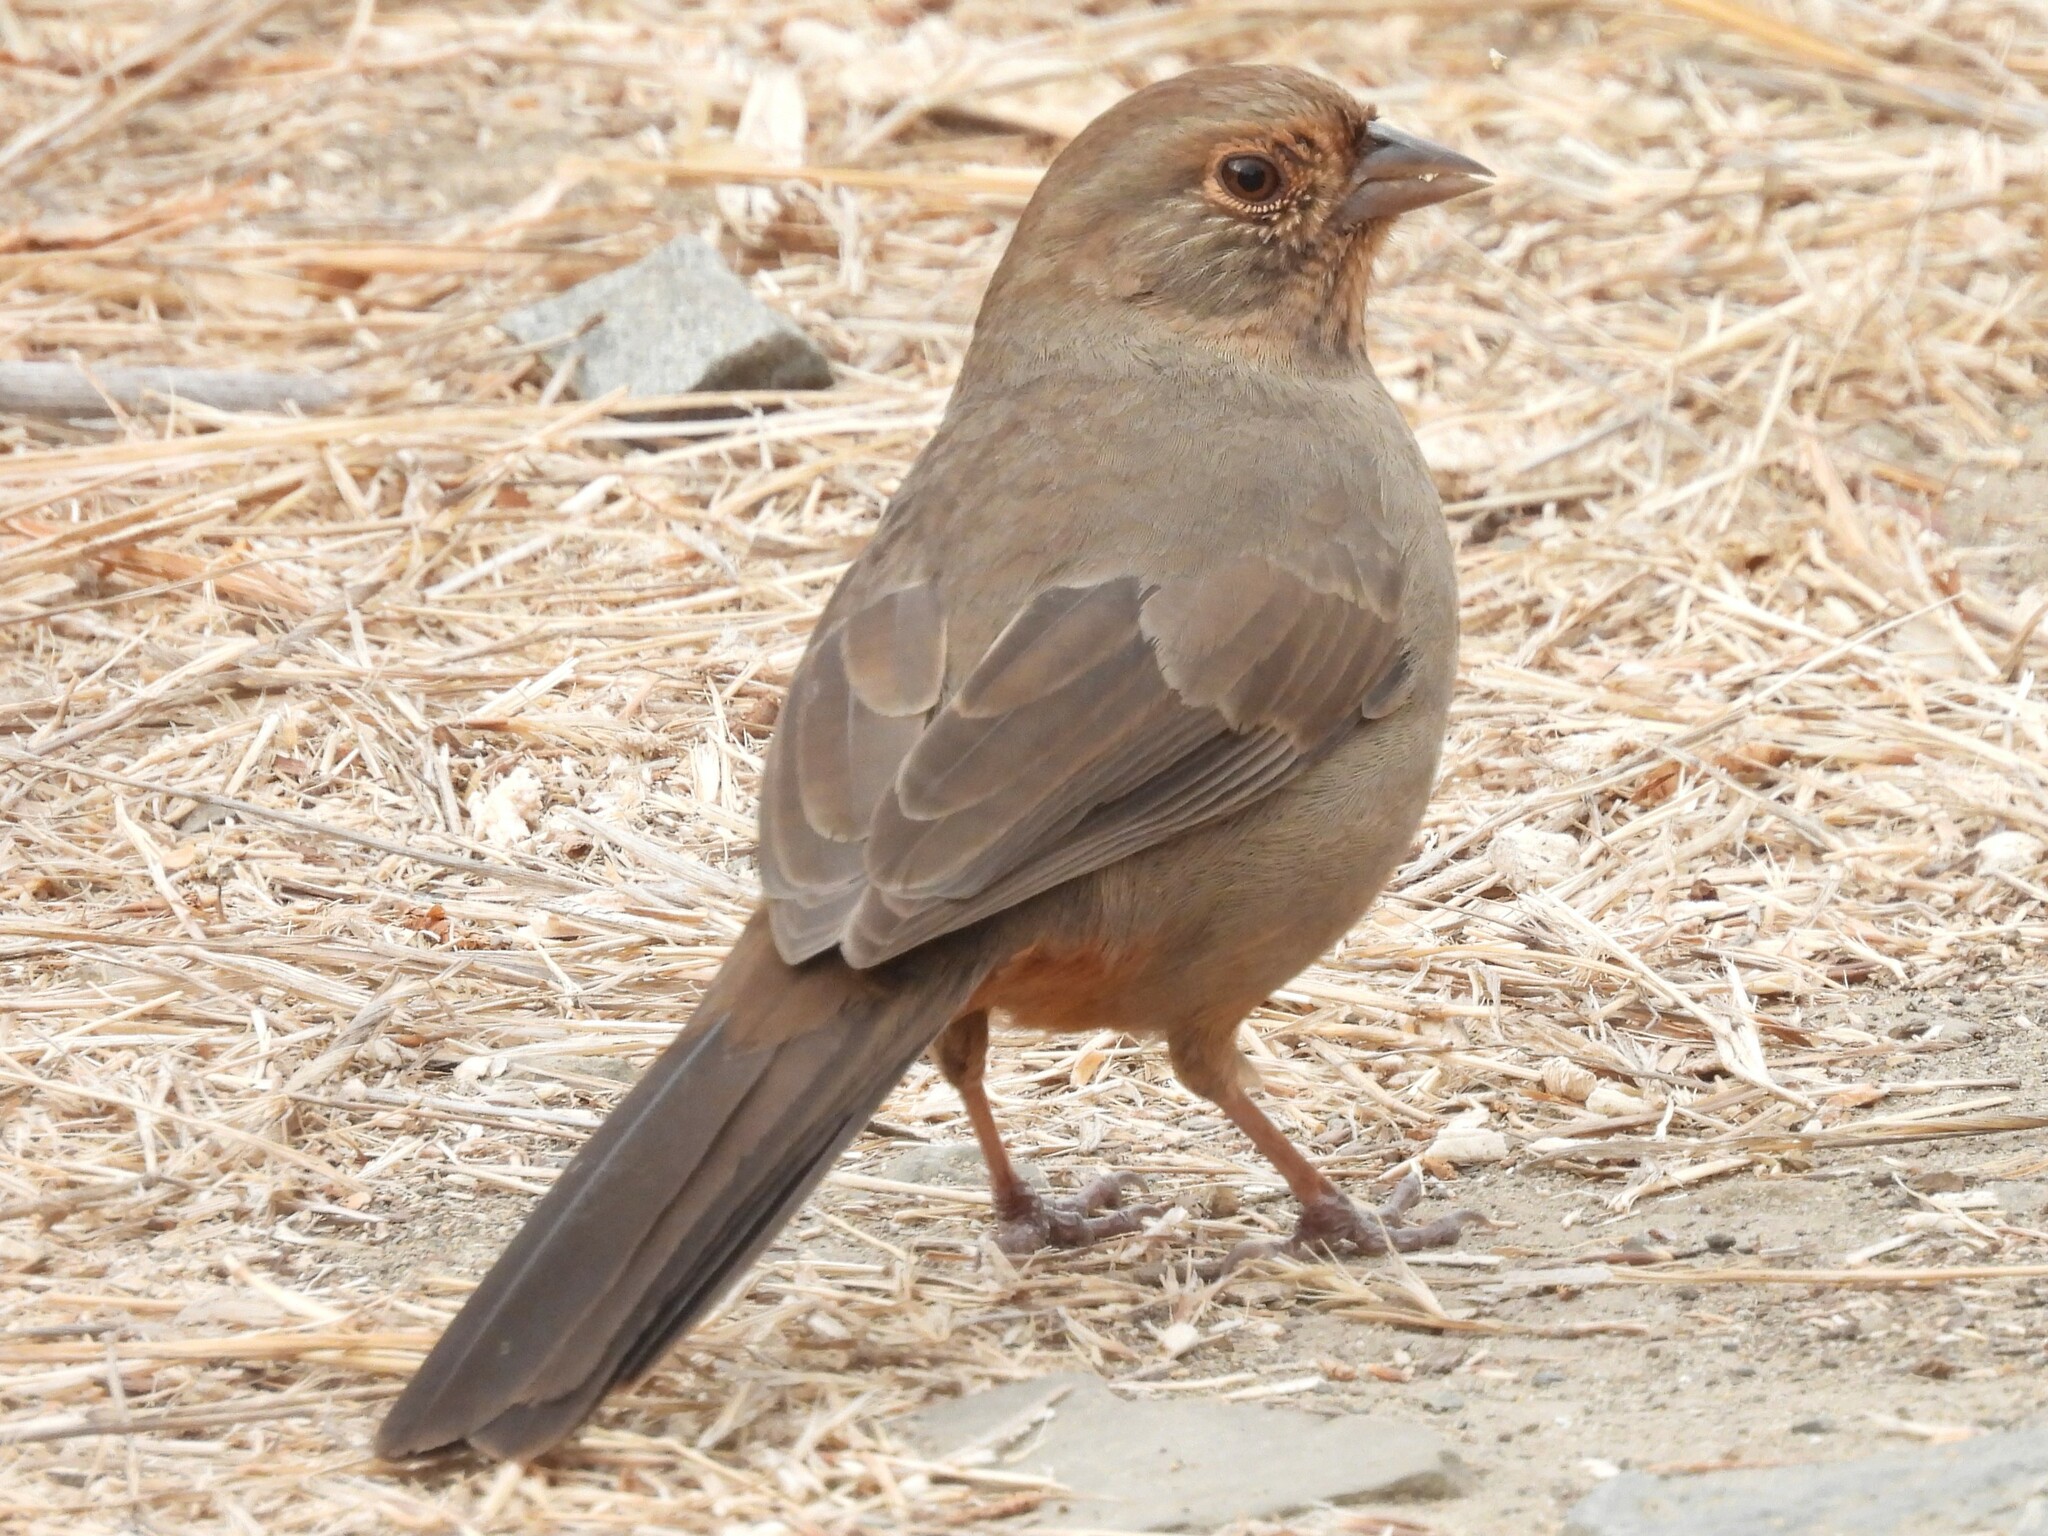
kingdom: Animalia
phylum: Chordata
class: Aves
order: Passeriformes
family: Passerellidae
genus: Melozone
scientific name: Melozone crissalis
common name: California towhee
